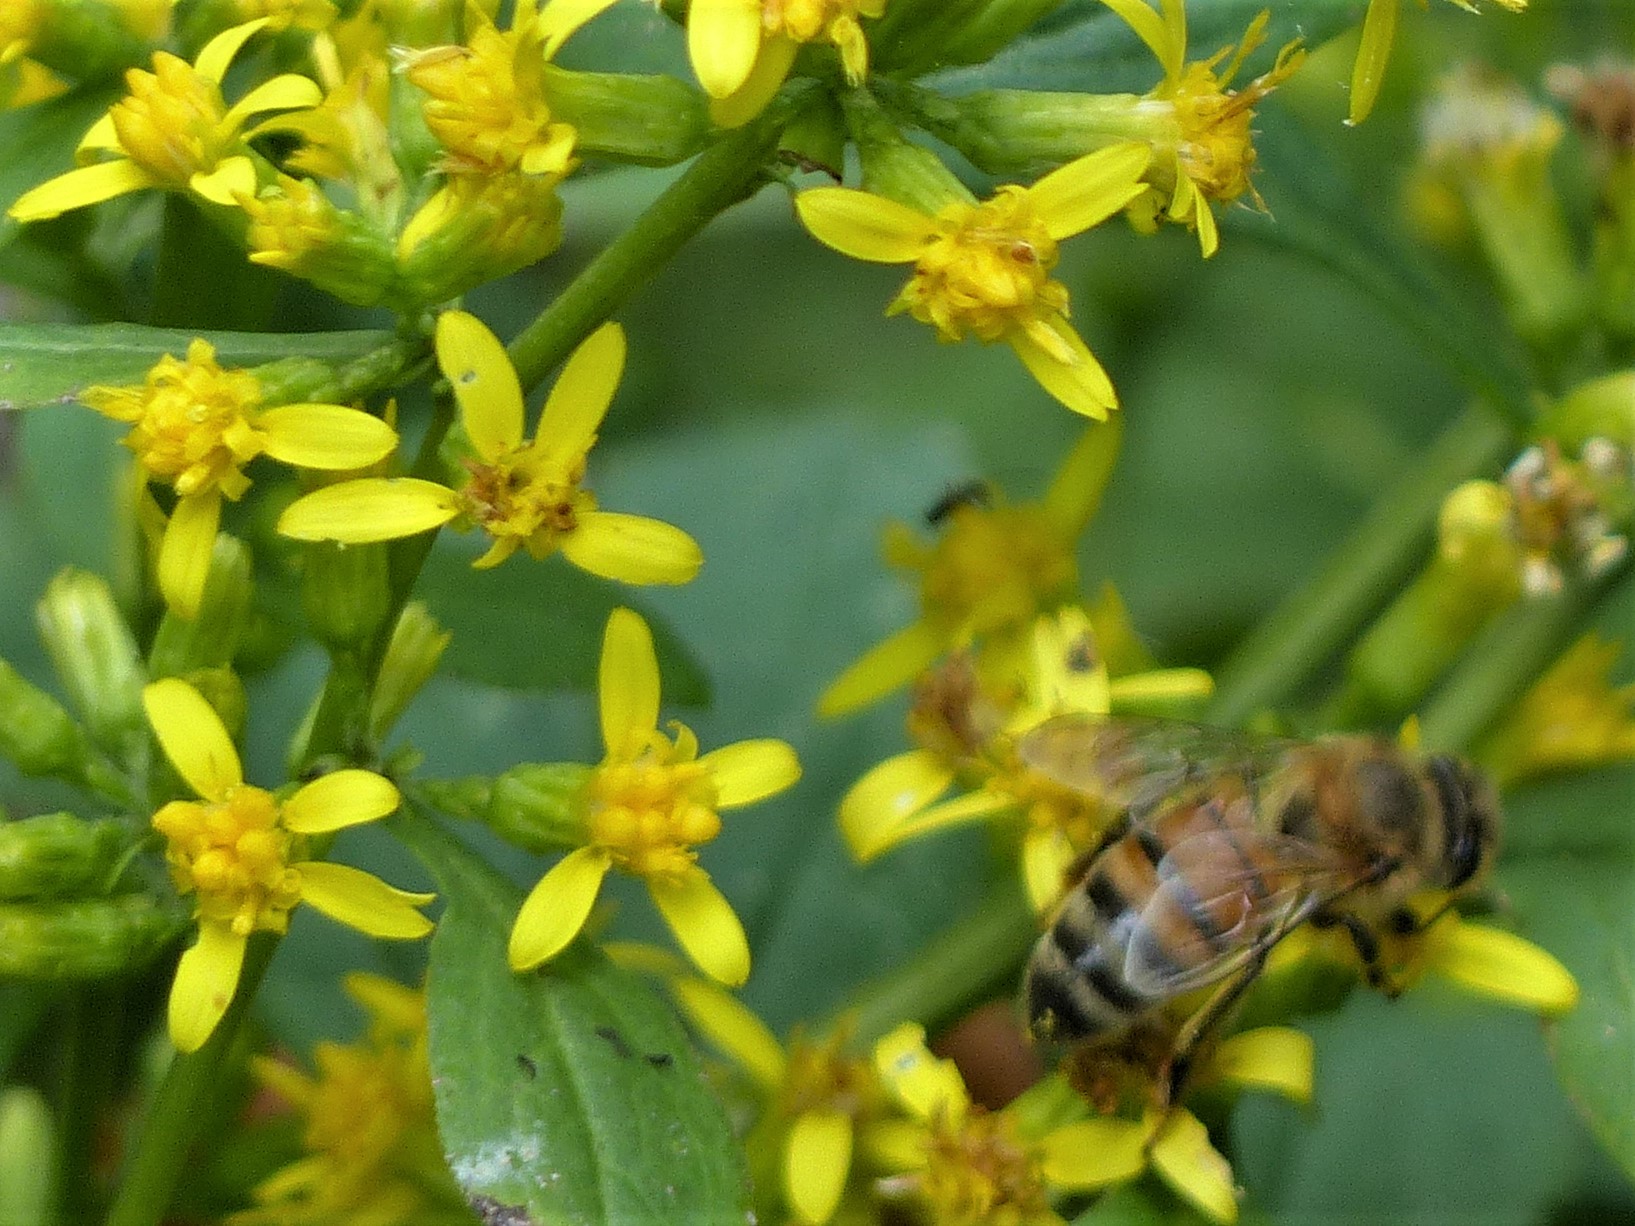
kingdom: Animalia
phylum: Arthropoda
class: Insecta
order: Hymenoptera
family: Apidae
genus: Apis
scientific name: Apis mellifera
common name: Honey bee
